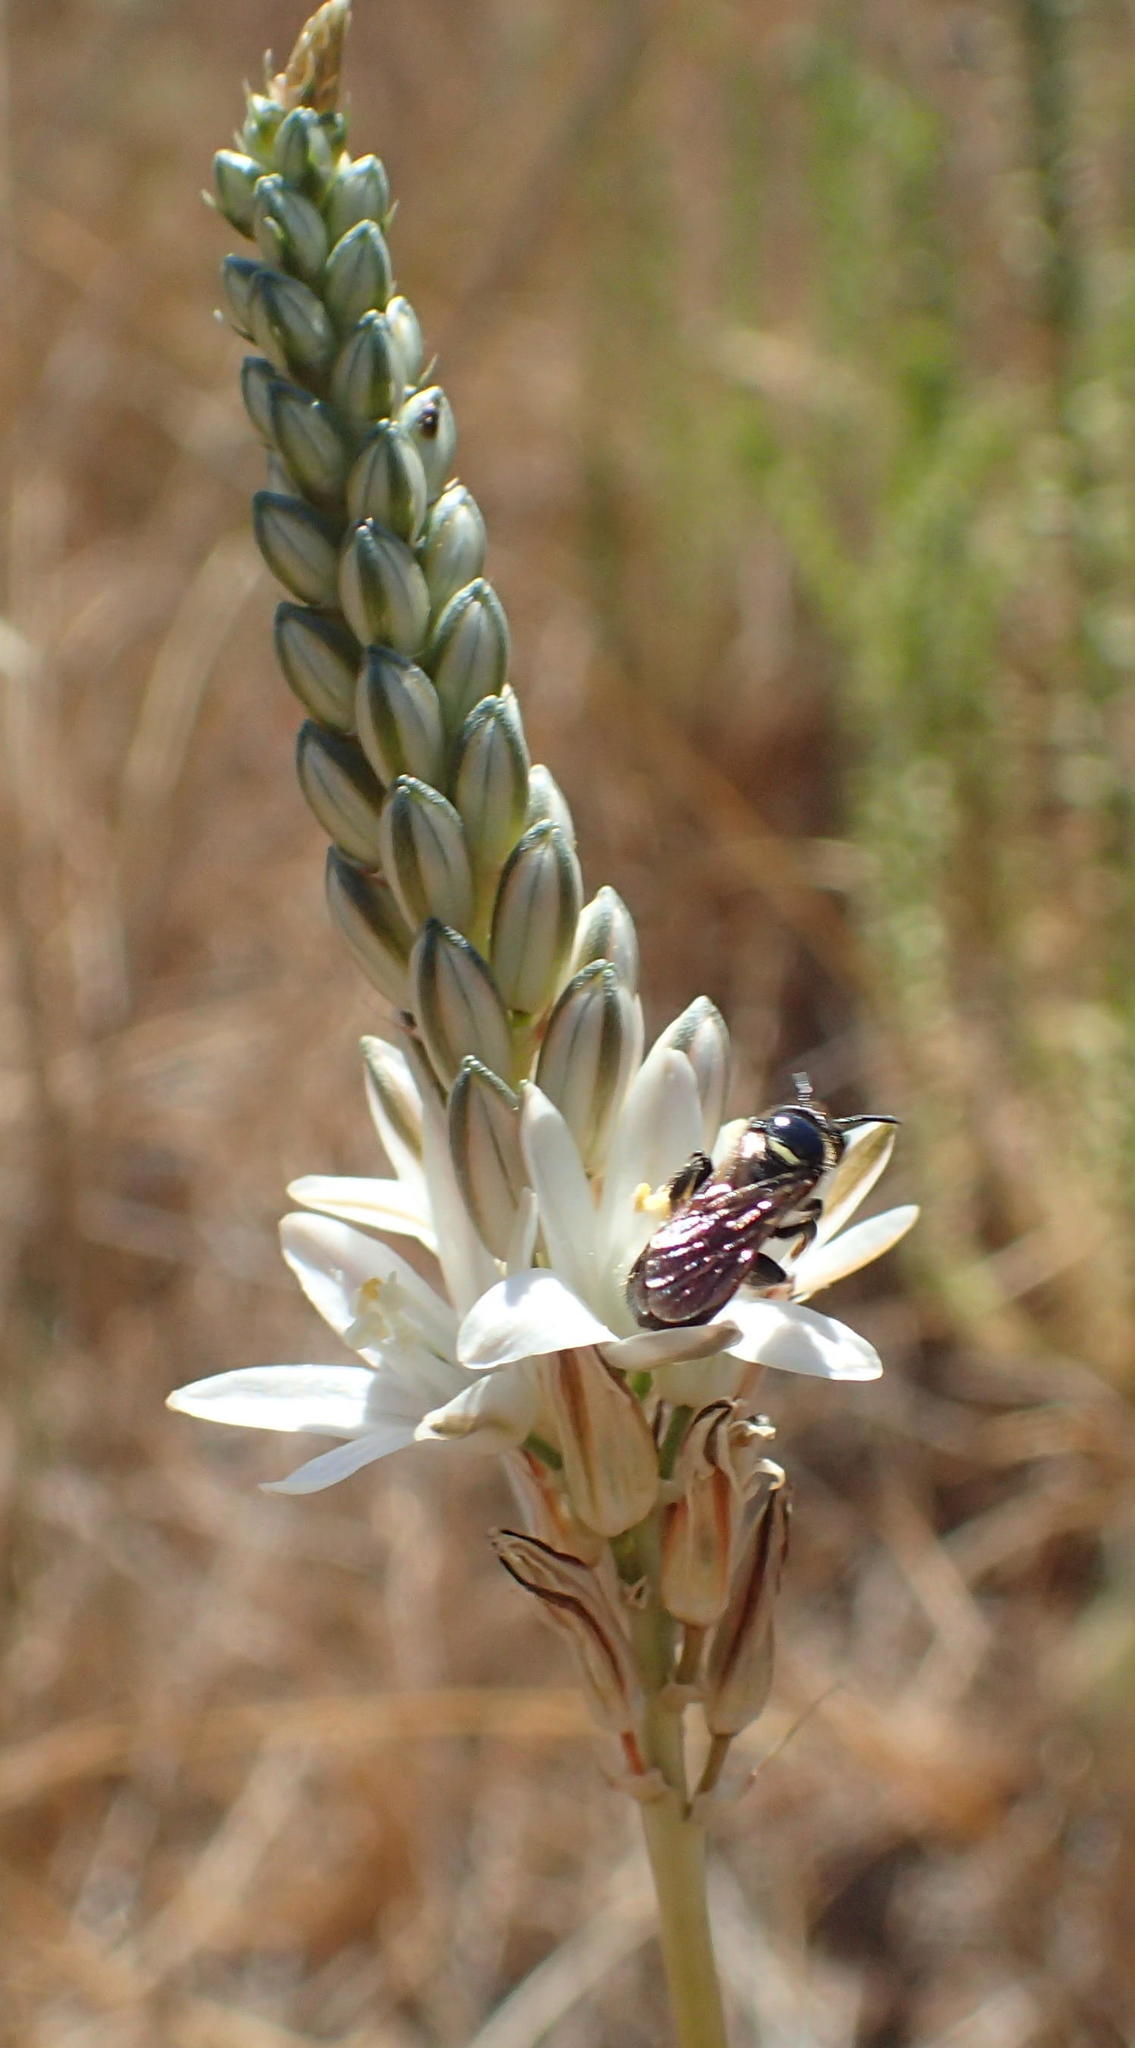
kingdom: Plantae
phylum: Tracheophyta
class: Liliopsida
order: Asparagales
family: Asparagaceae
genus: Ornithogalum
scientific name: Ornithogalum graminifolium
